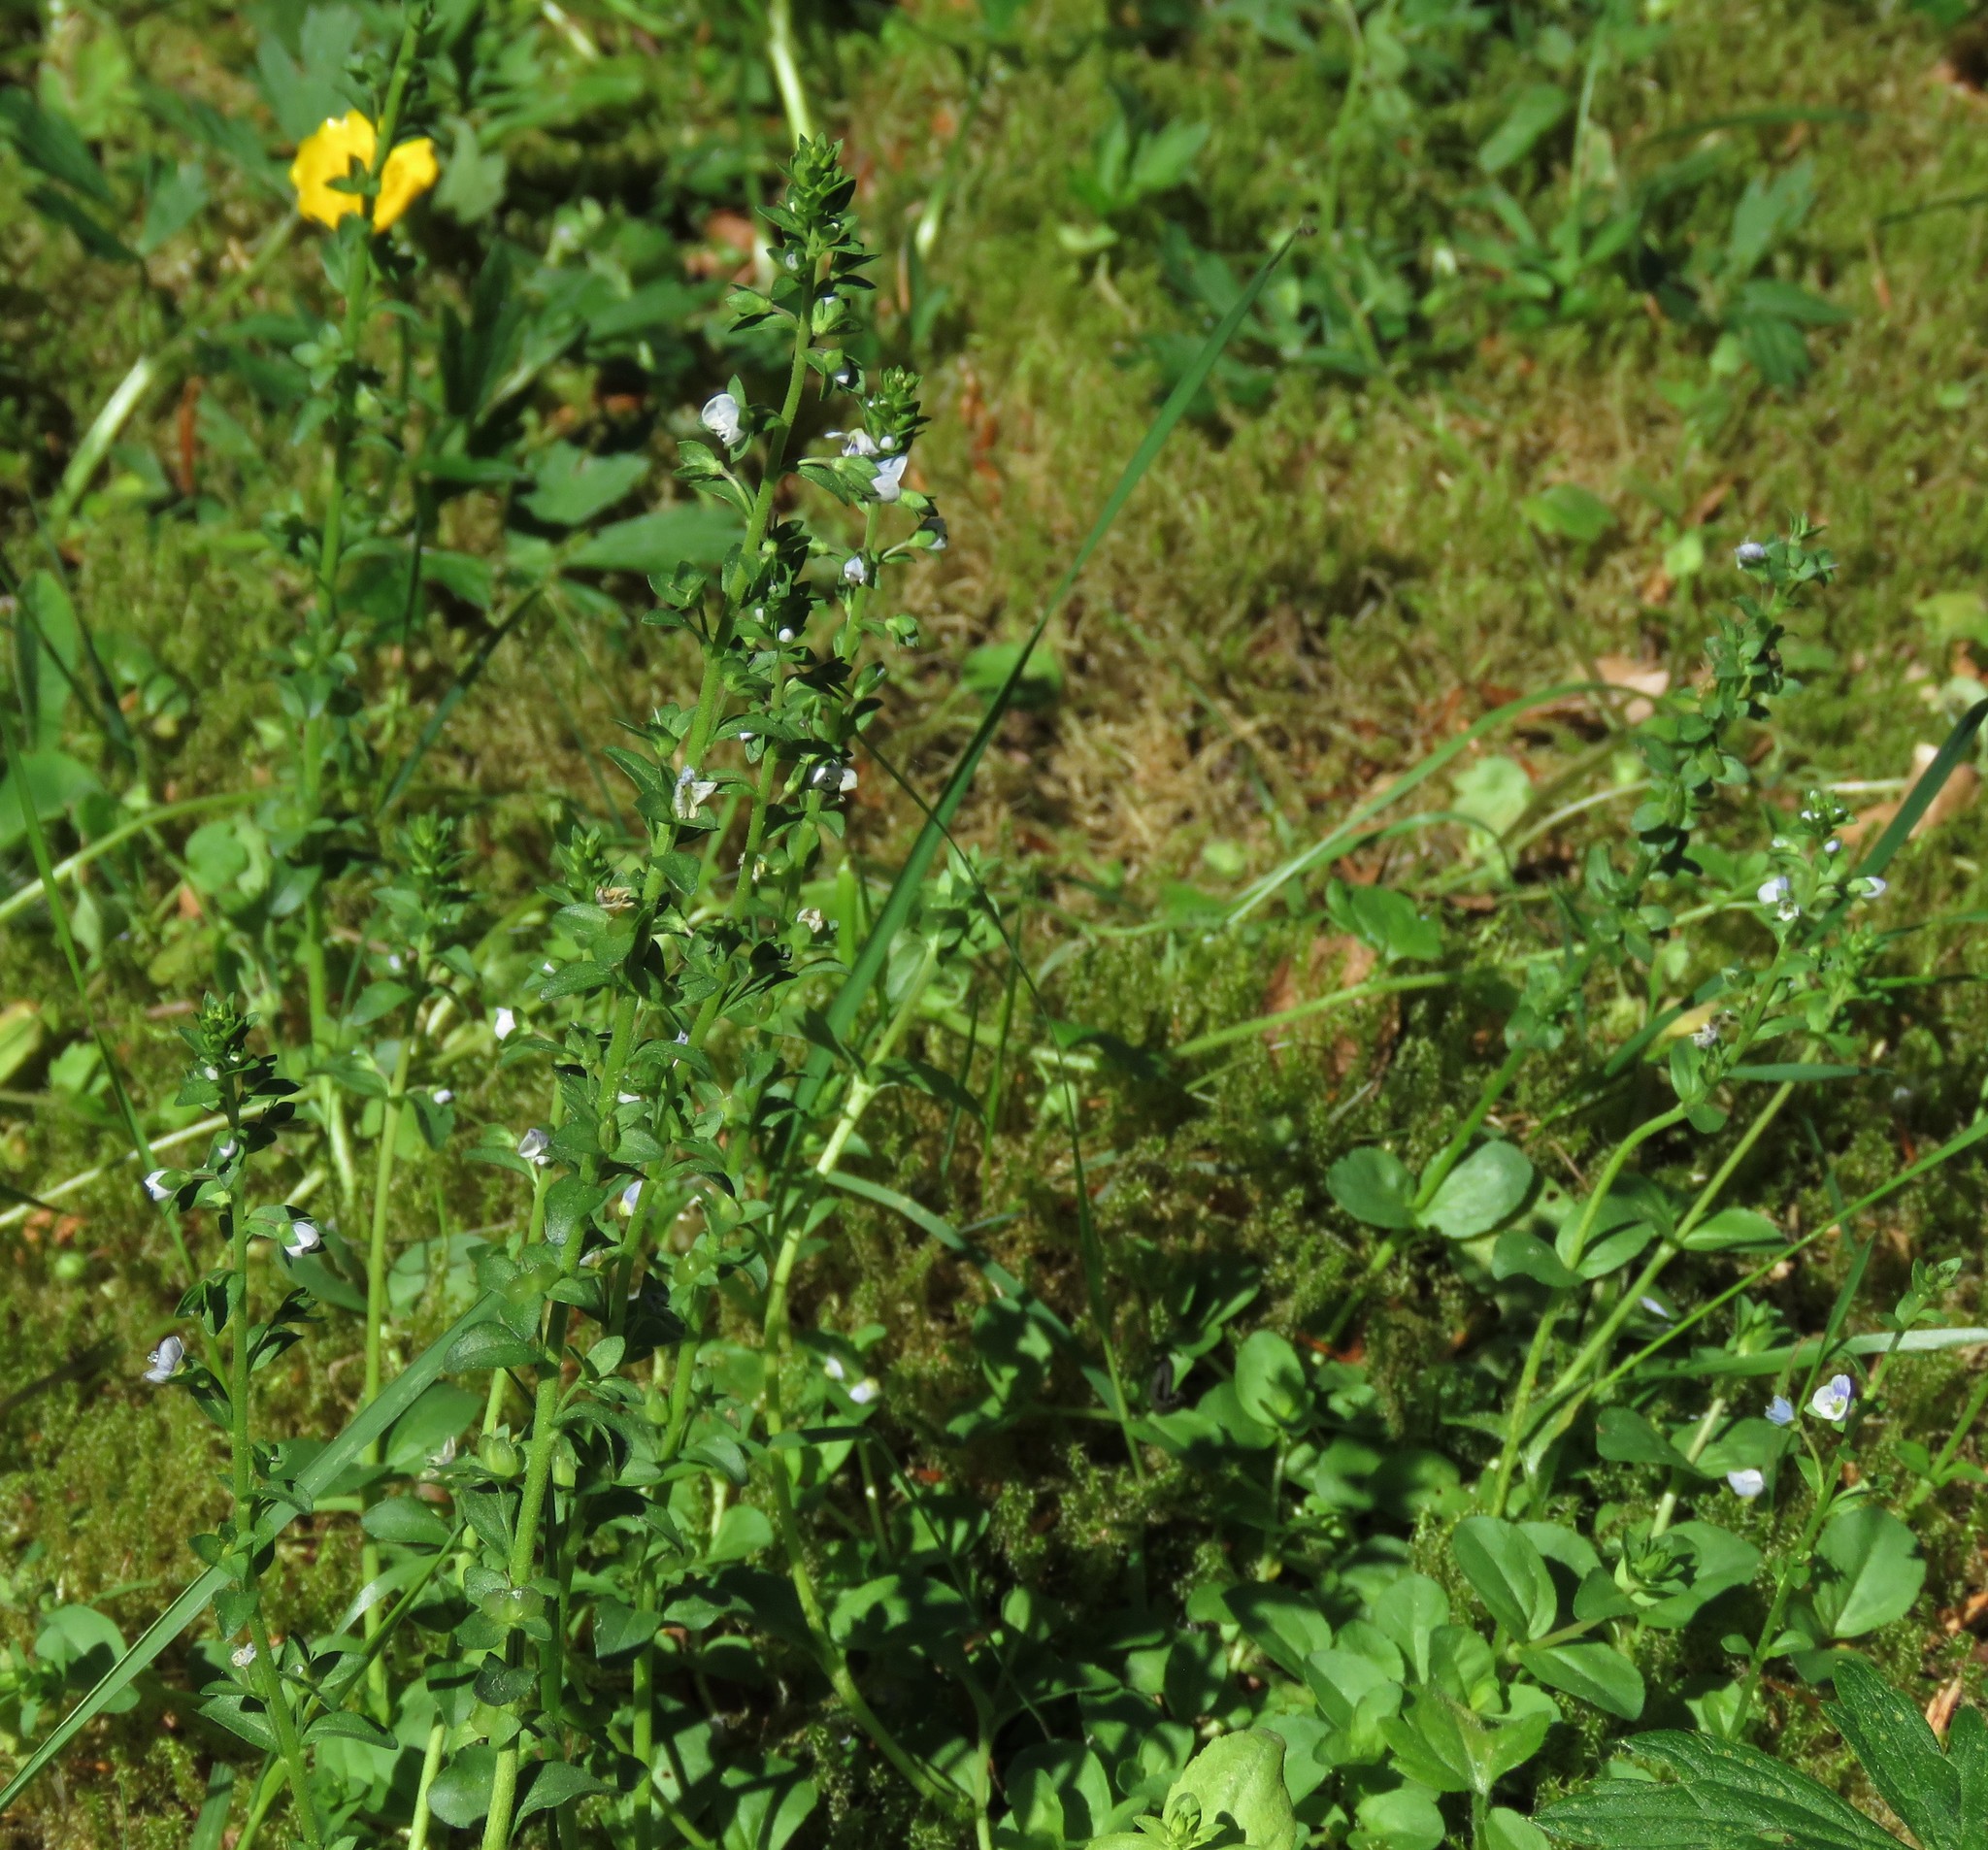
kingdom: Plantae
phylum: Tracheophyta
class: Magnoliopsida
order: Lamiales
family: Plantaginaceae
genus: Veronica
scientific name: Veronica serpyllifolia
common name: Thyme-leaved speedwell
